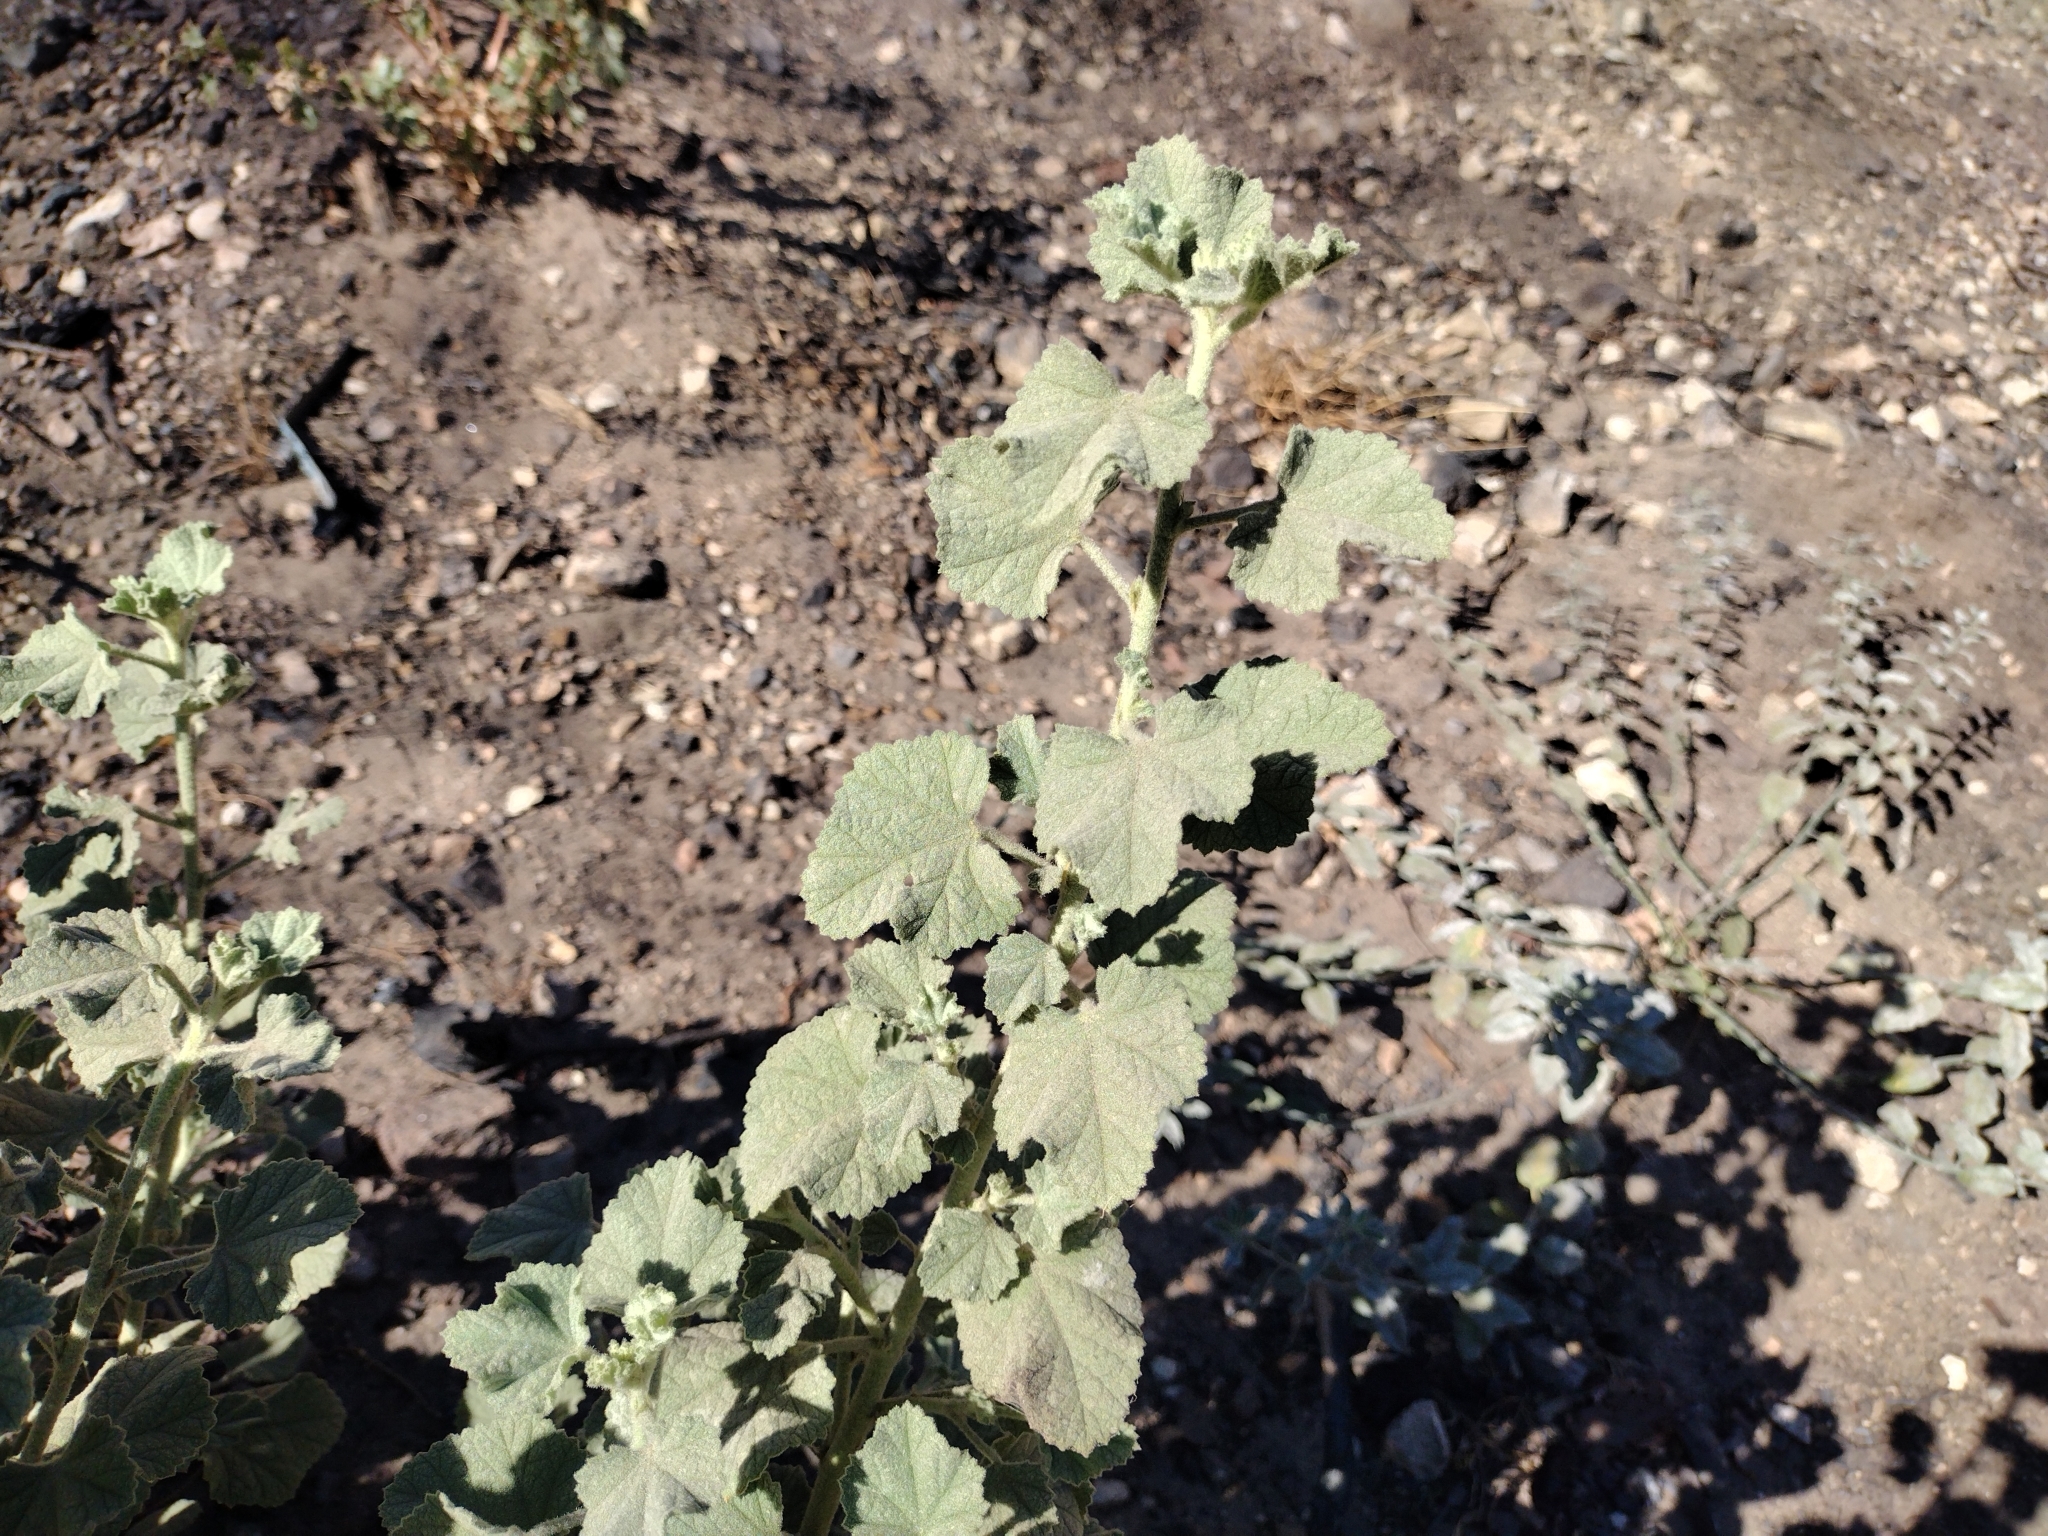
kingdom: Plantae
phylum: Tracheophyta
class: Magnoliopsida
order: Malvales
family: Malvaceae
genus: Malacothamnus
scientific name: Malacothamnus fremontii
